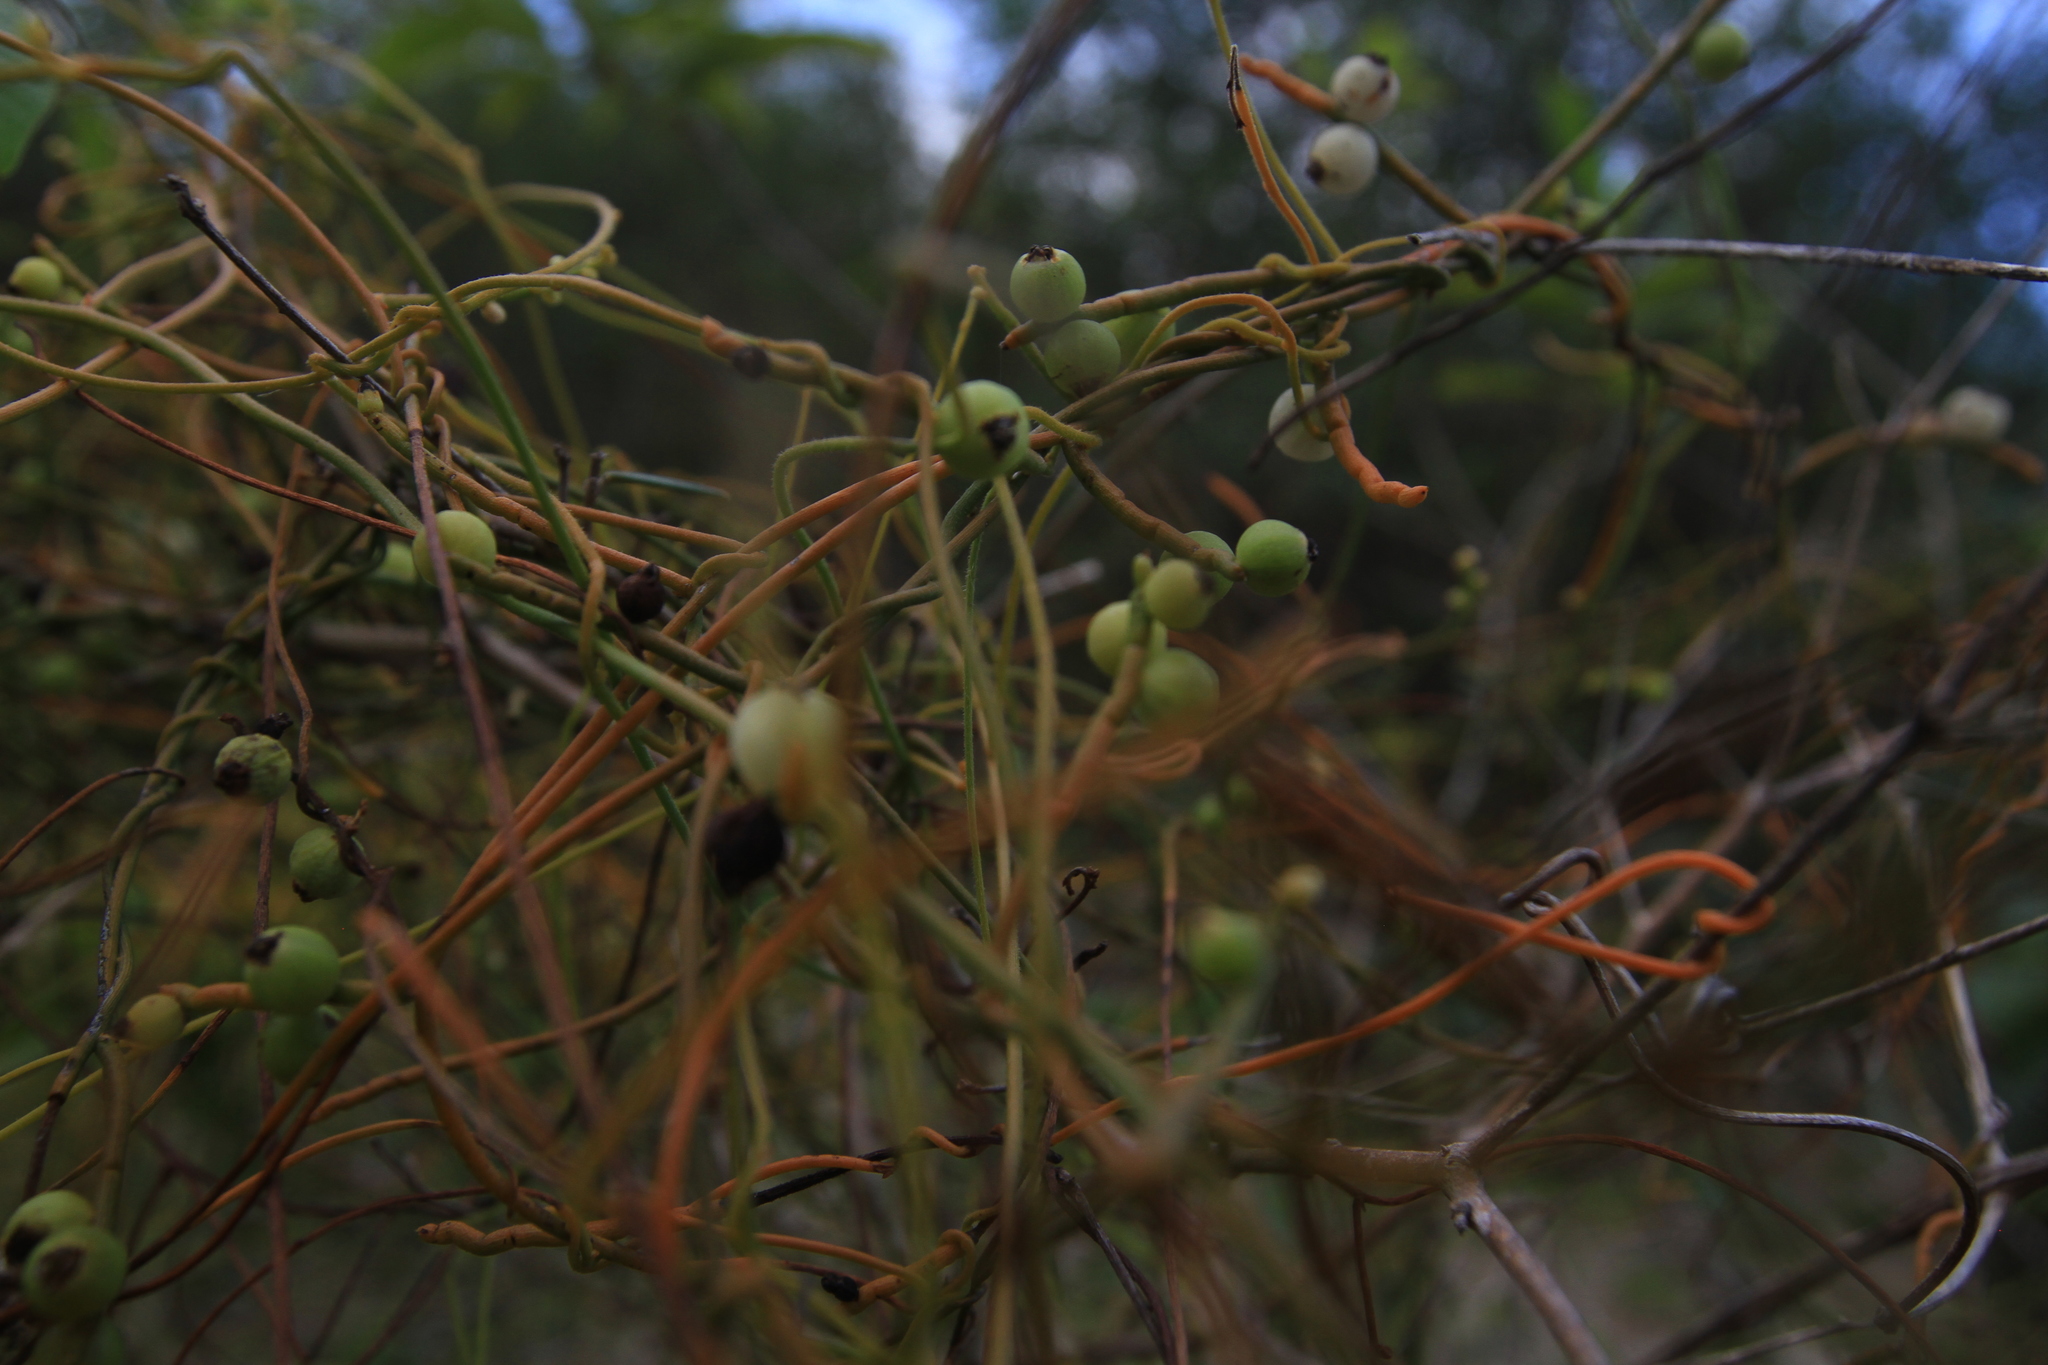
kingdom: Plantae
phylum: Tracheophyta
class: Magnoliopsida
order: Laurales
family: Lauraceae
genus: Cassytha
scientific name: Cassytha filiformis
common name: Dodder-laurel
